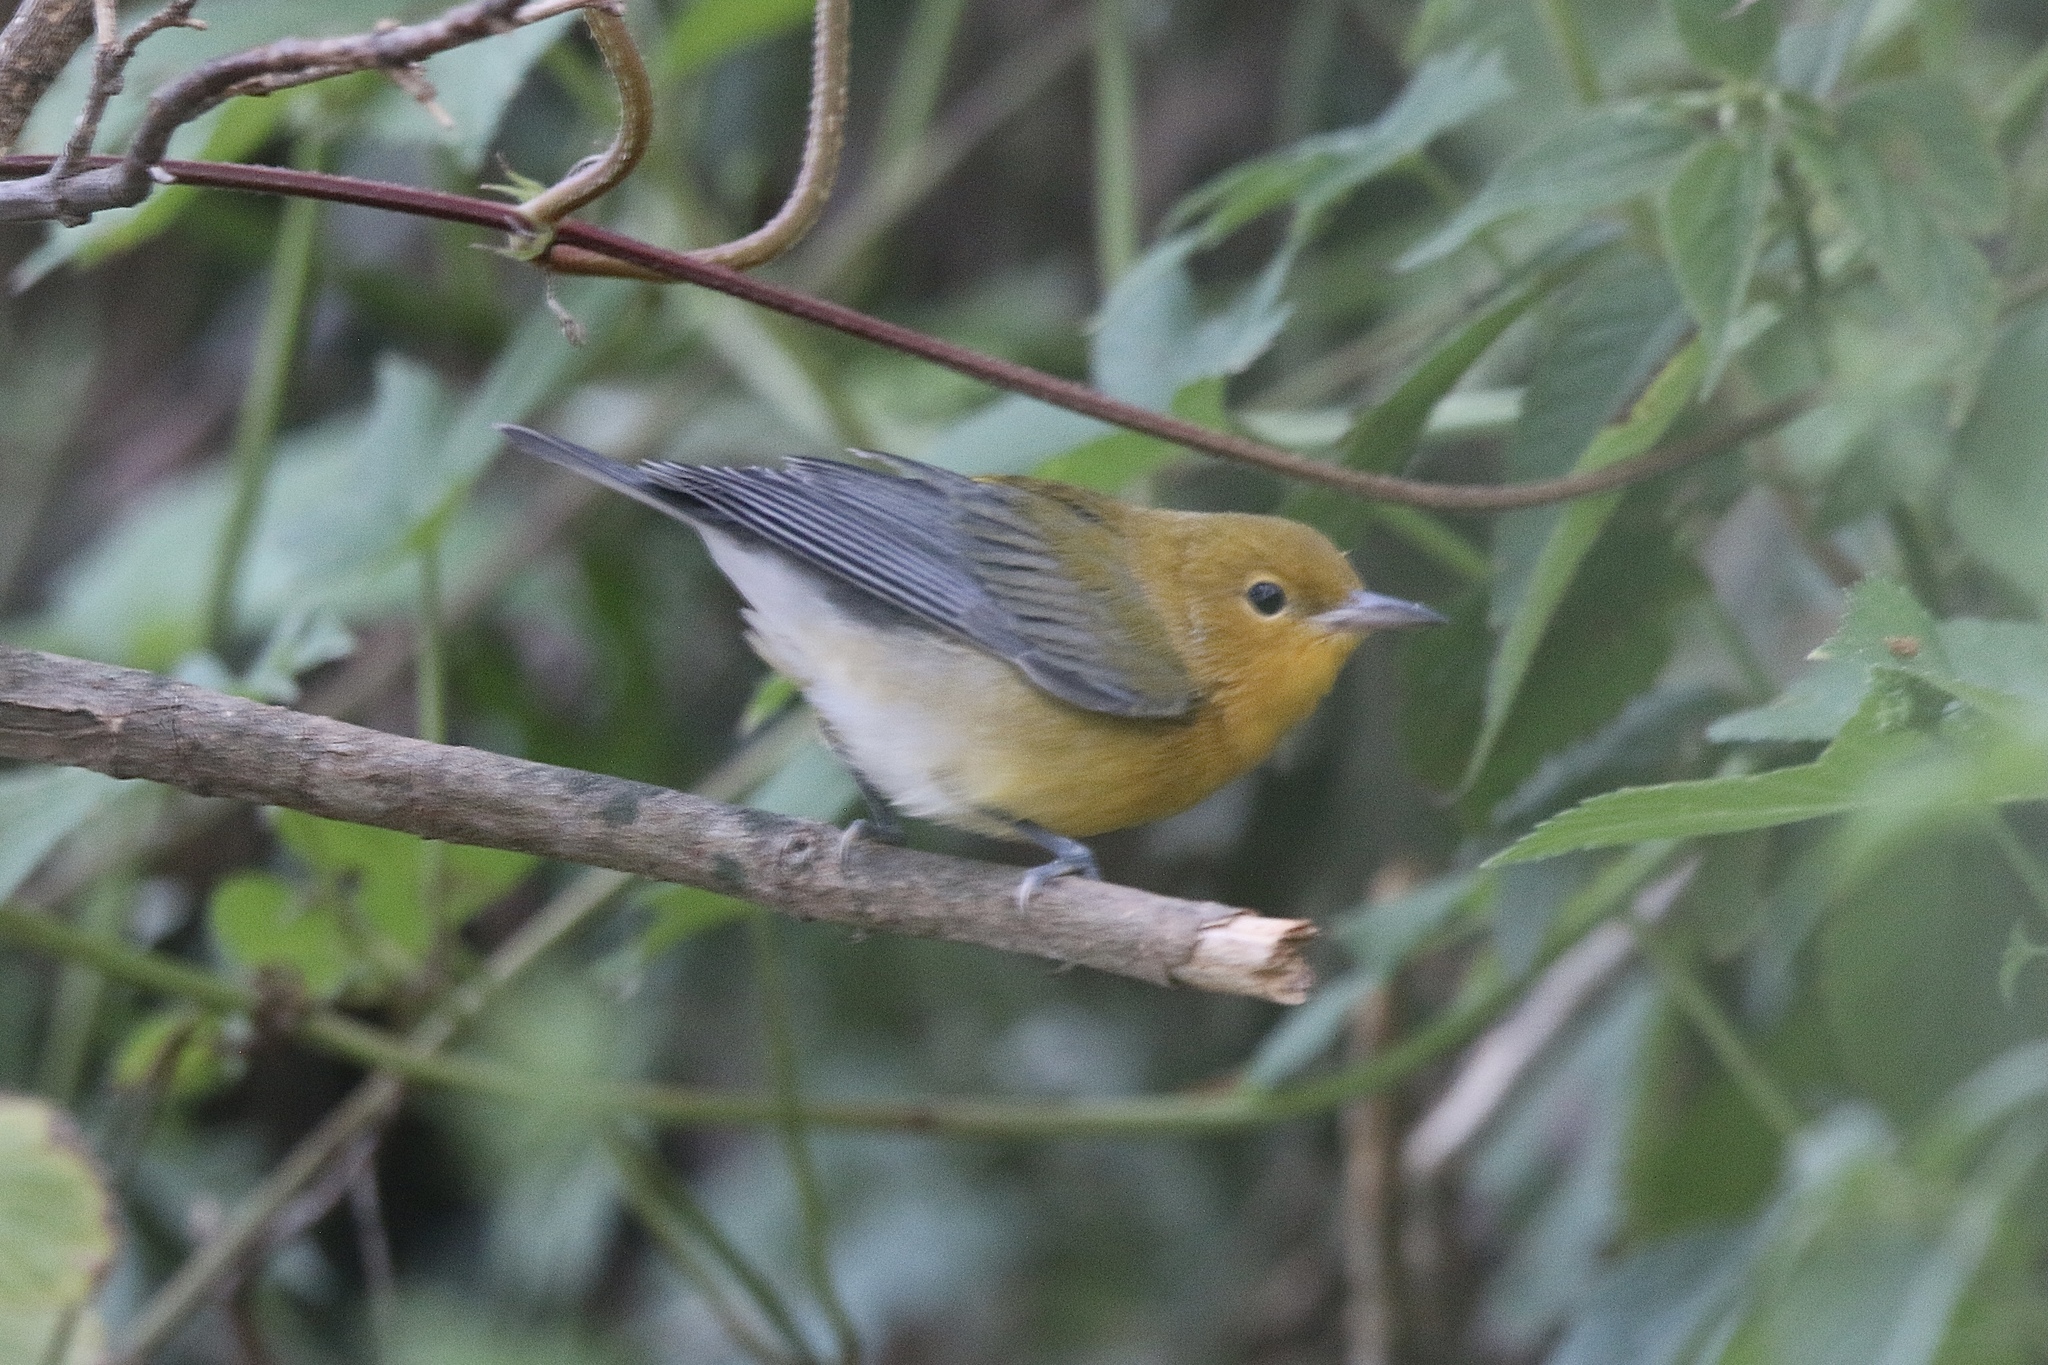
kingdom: Animalia
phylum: Chordata
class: Aves
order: Passeriformes
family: Parulidae
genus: Protonotaria
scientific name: Protonotaria citrea
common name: Prothonotary warbler
